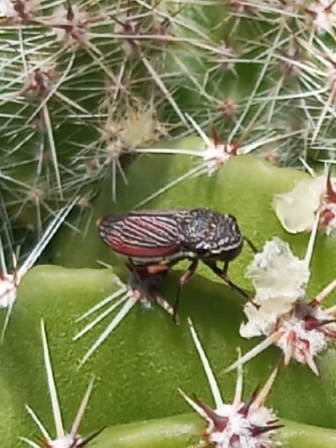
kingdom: Animalia
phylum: Arthropoda
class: Insecta
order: Hemiptera
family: Cicadellidae
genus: Cuerna
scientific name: Cuerna costalis
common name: Lateral-lined sharpshooter
